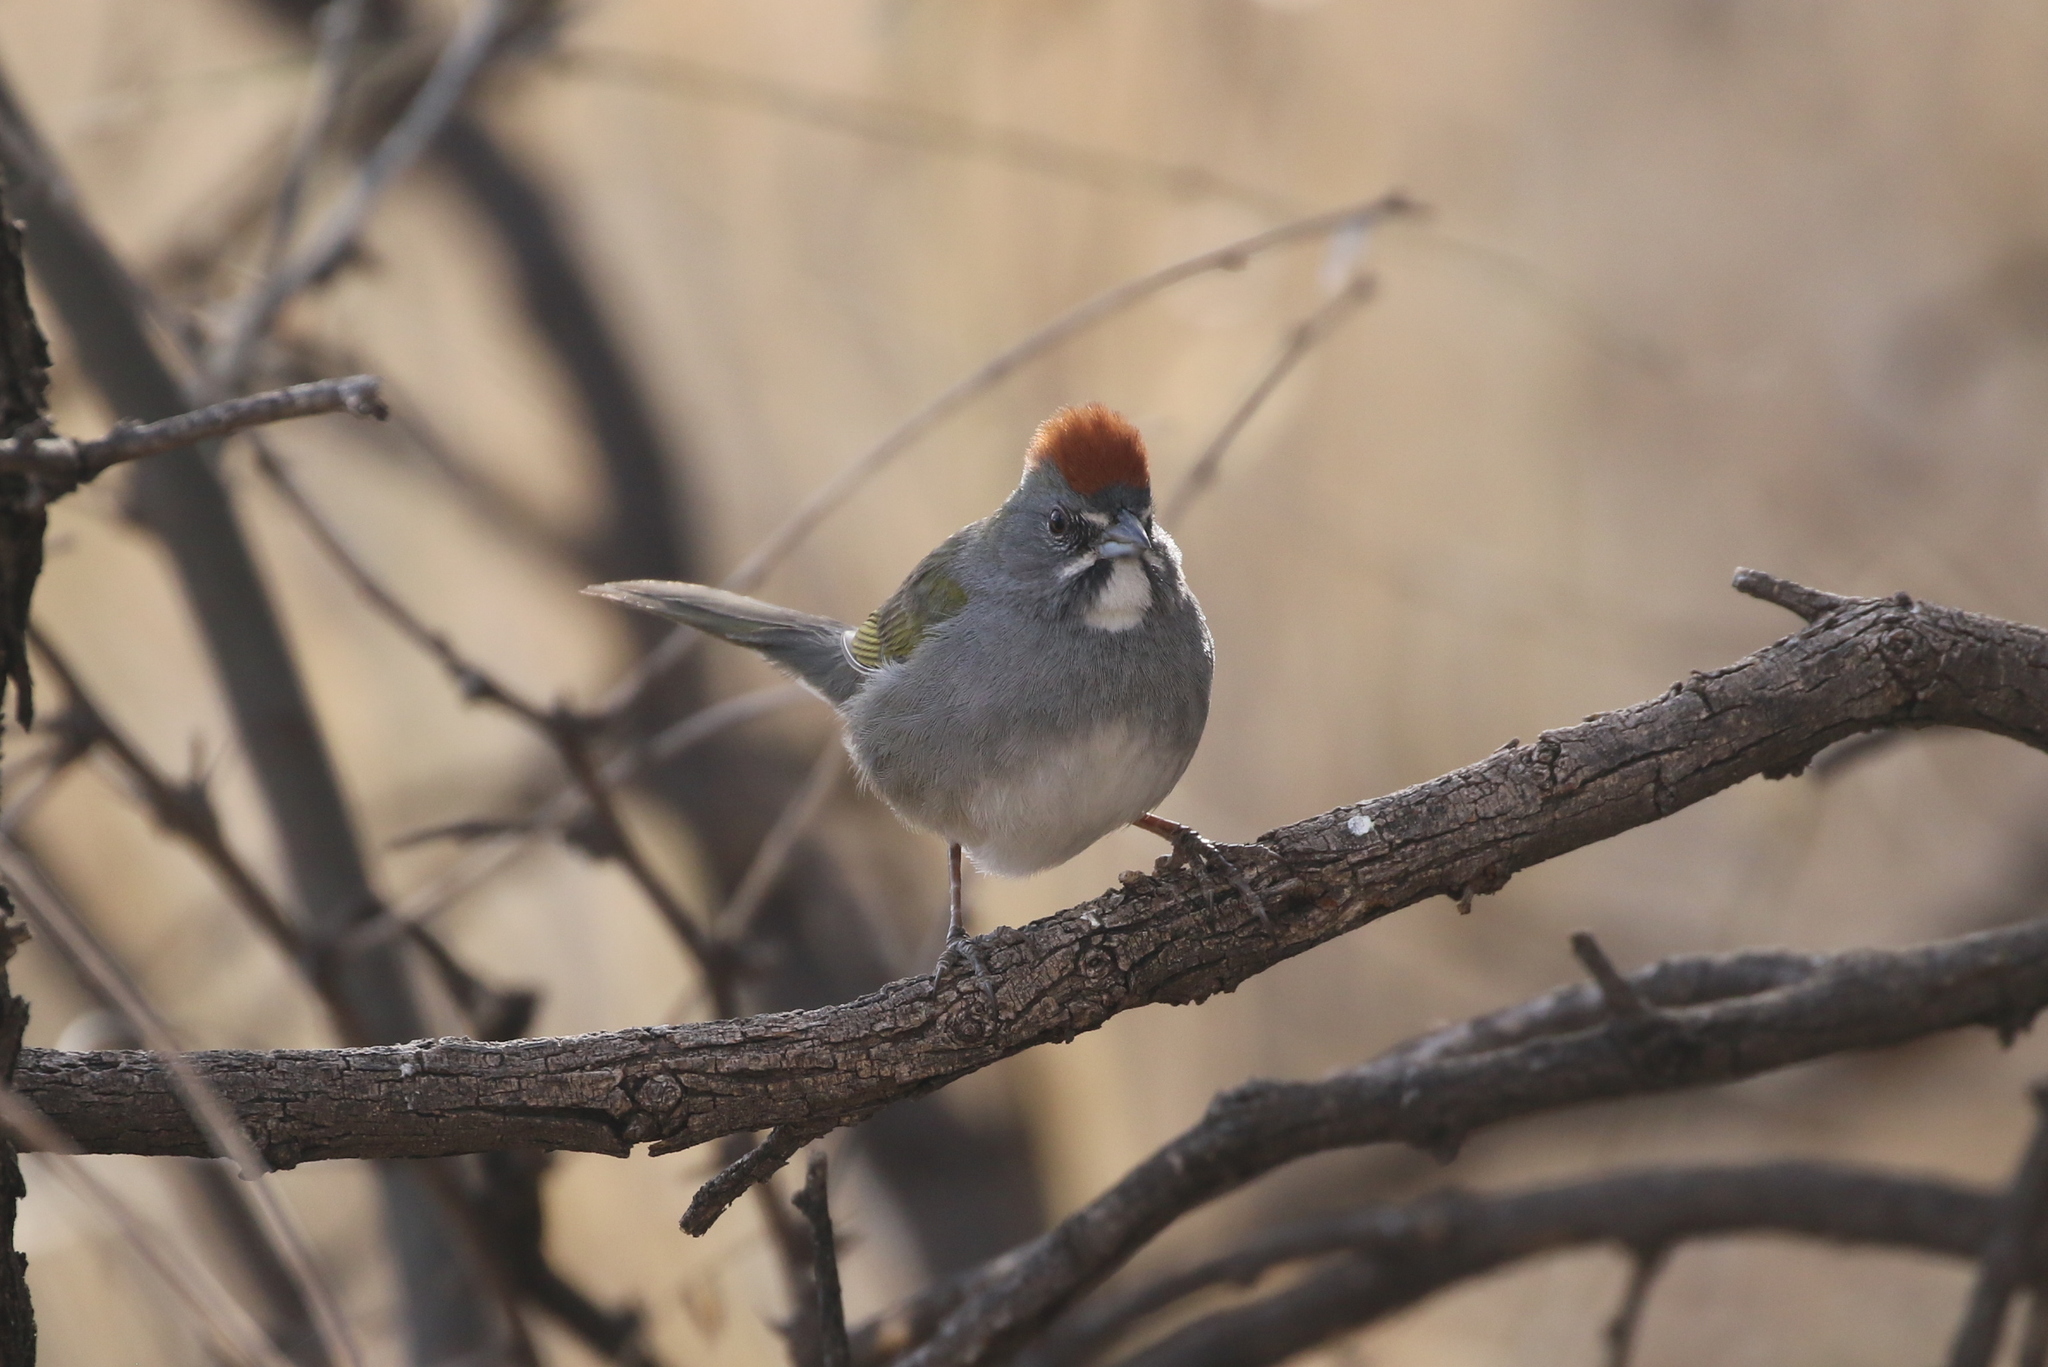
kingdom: Animalia
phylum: Chordata
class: Aves
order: Passeriformes
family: Passerellidae
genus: Pipilo
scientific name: Pipilo chlorurus
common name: Green-tailed towhee
